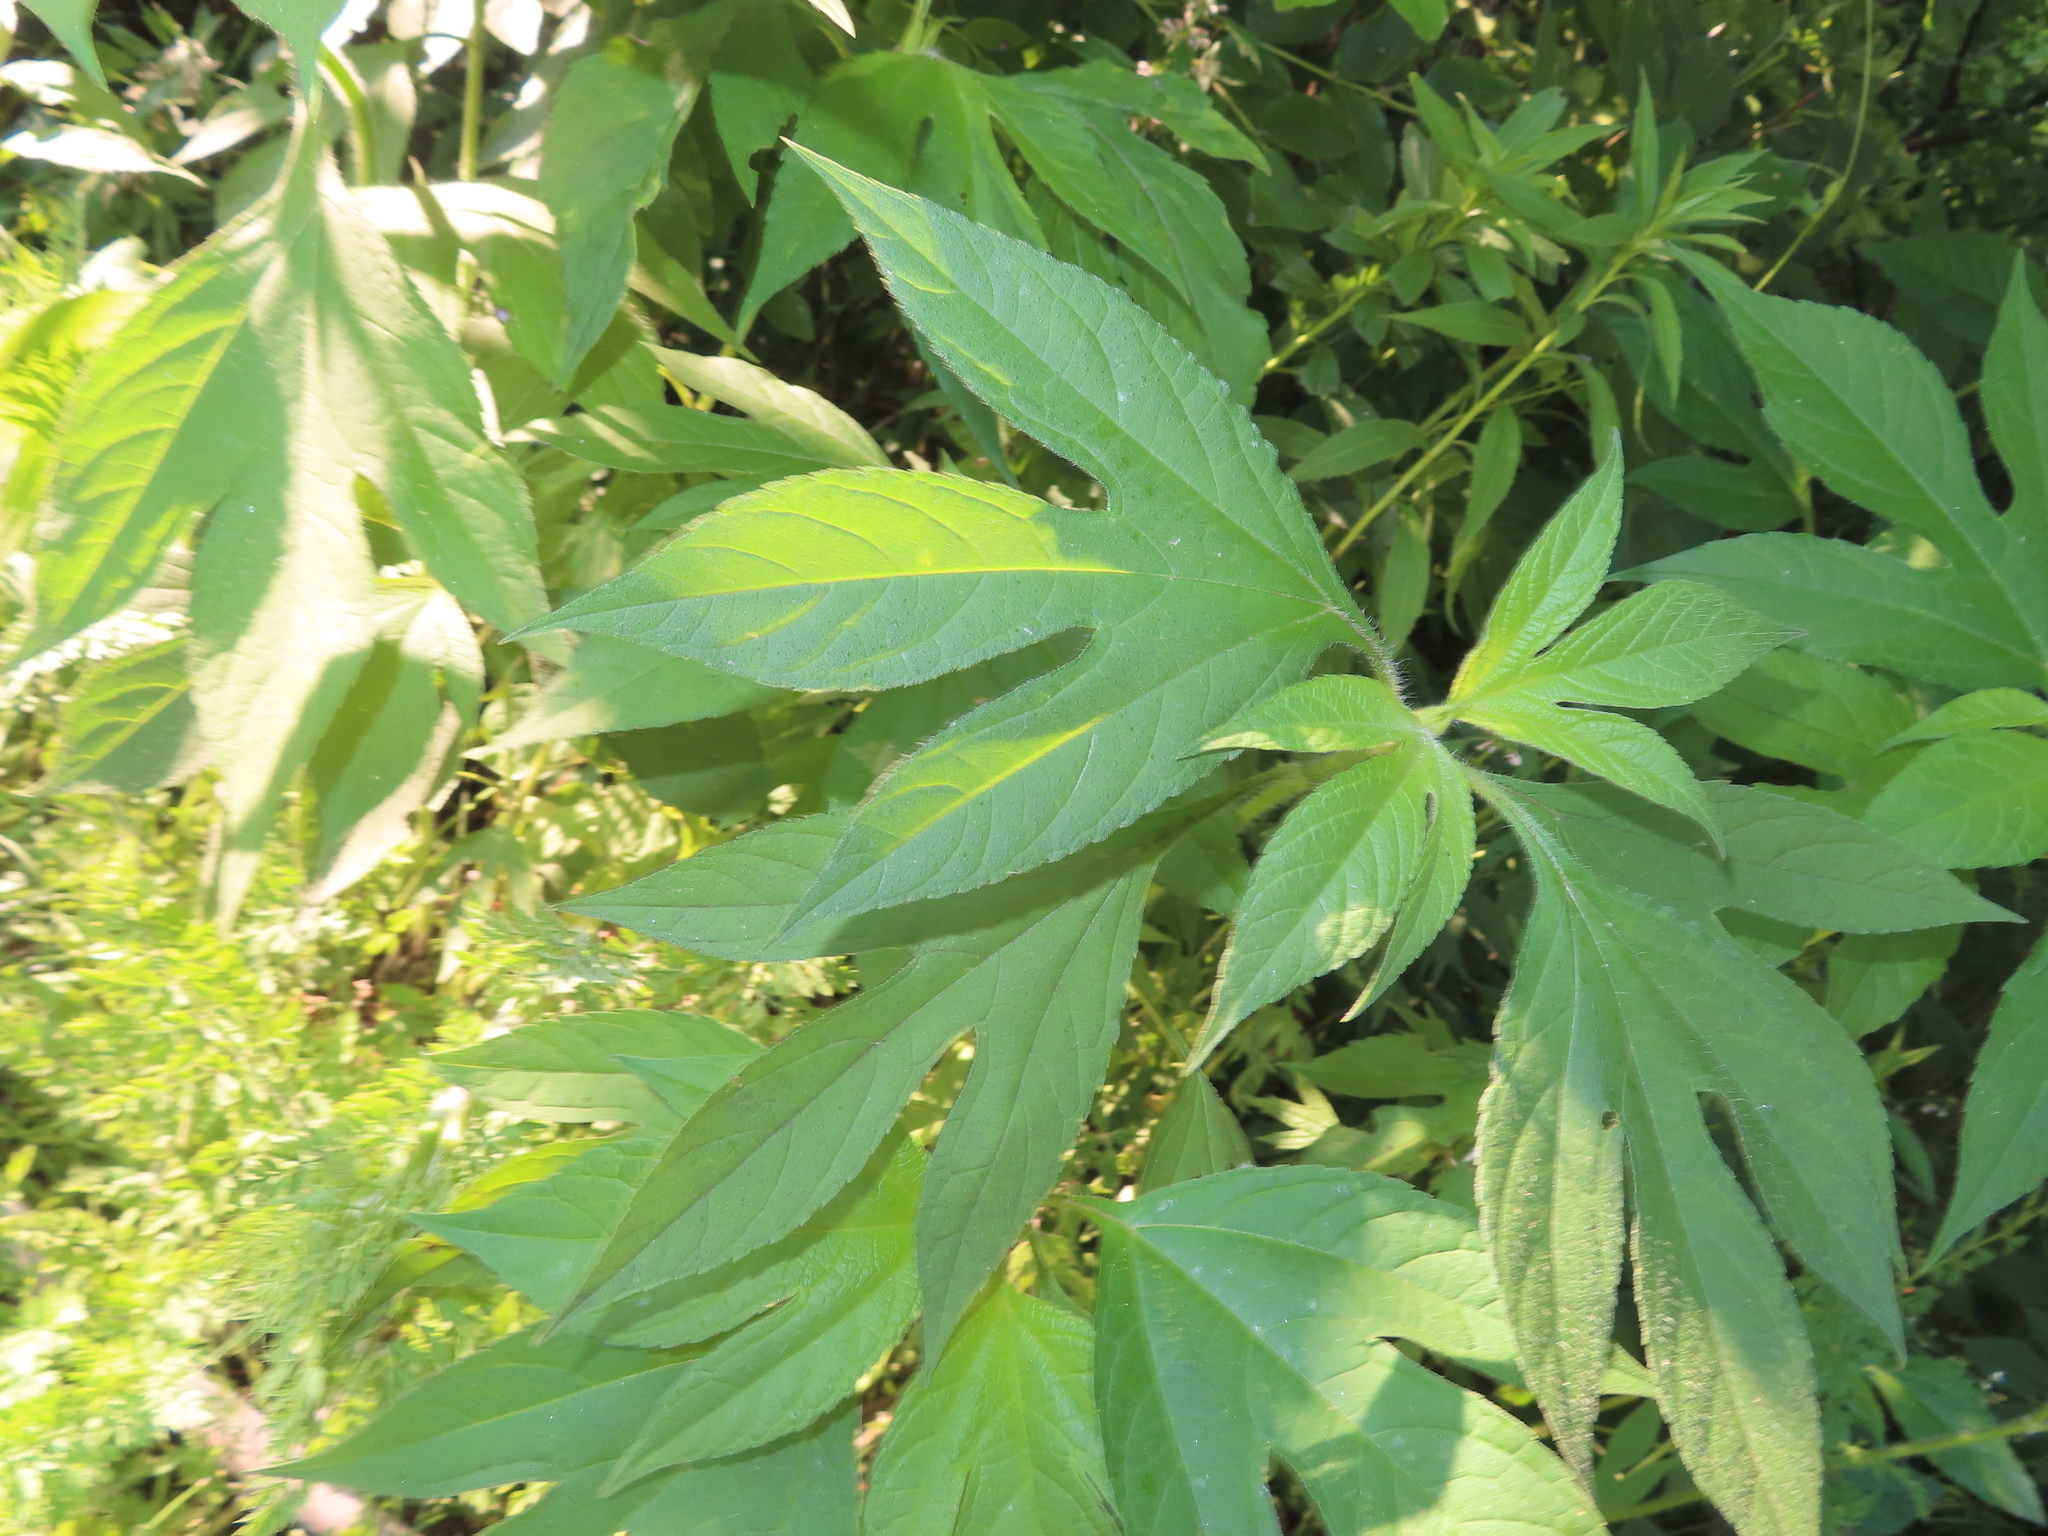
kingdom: Plantae
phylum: Tracheophyta
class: Magnoliopsida
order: Asterales
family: Asteraceae
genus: Ambrosia
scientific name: Ambrosia trifida
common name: Giant ragweed
